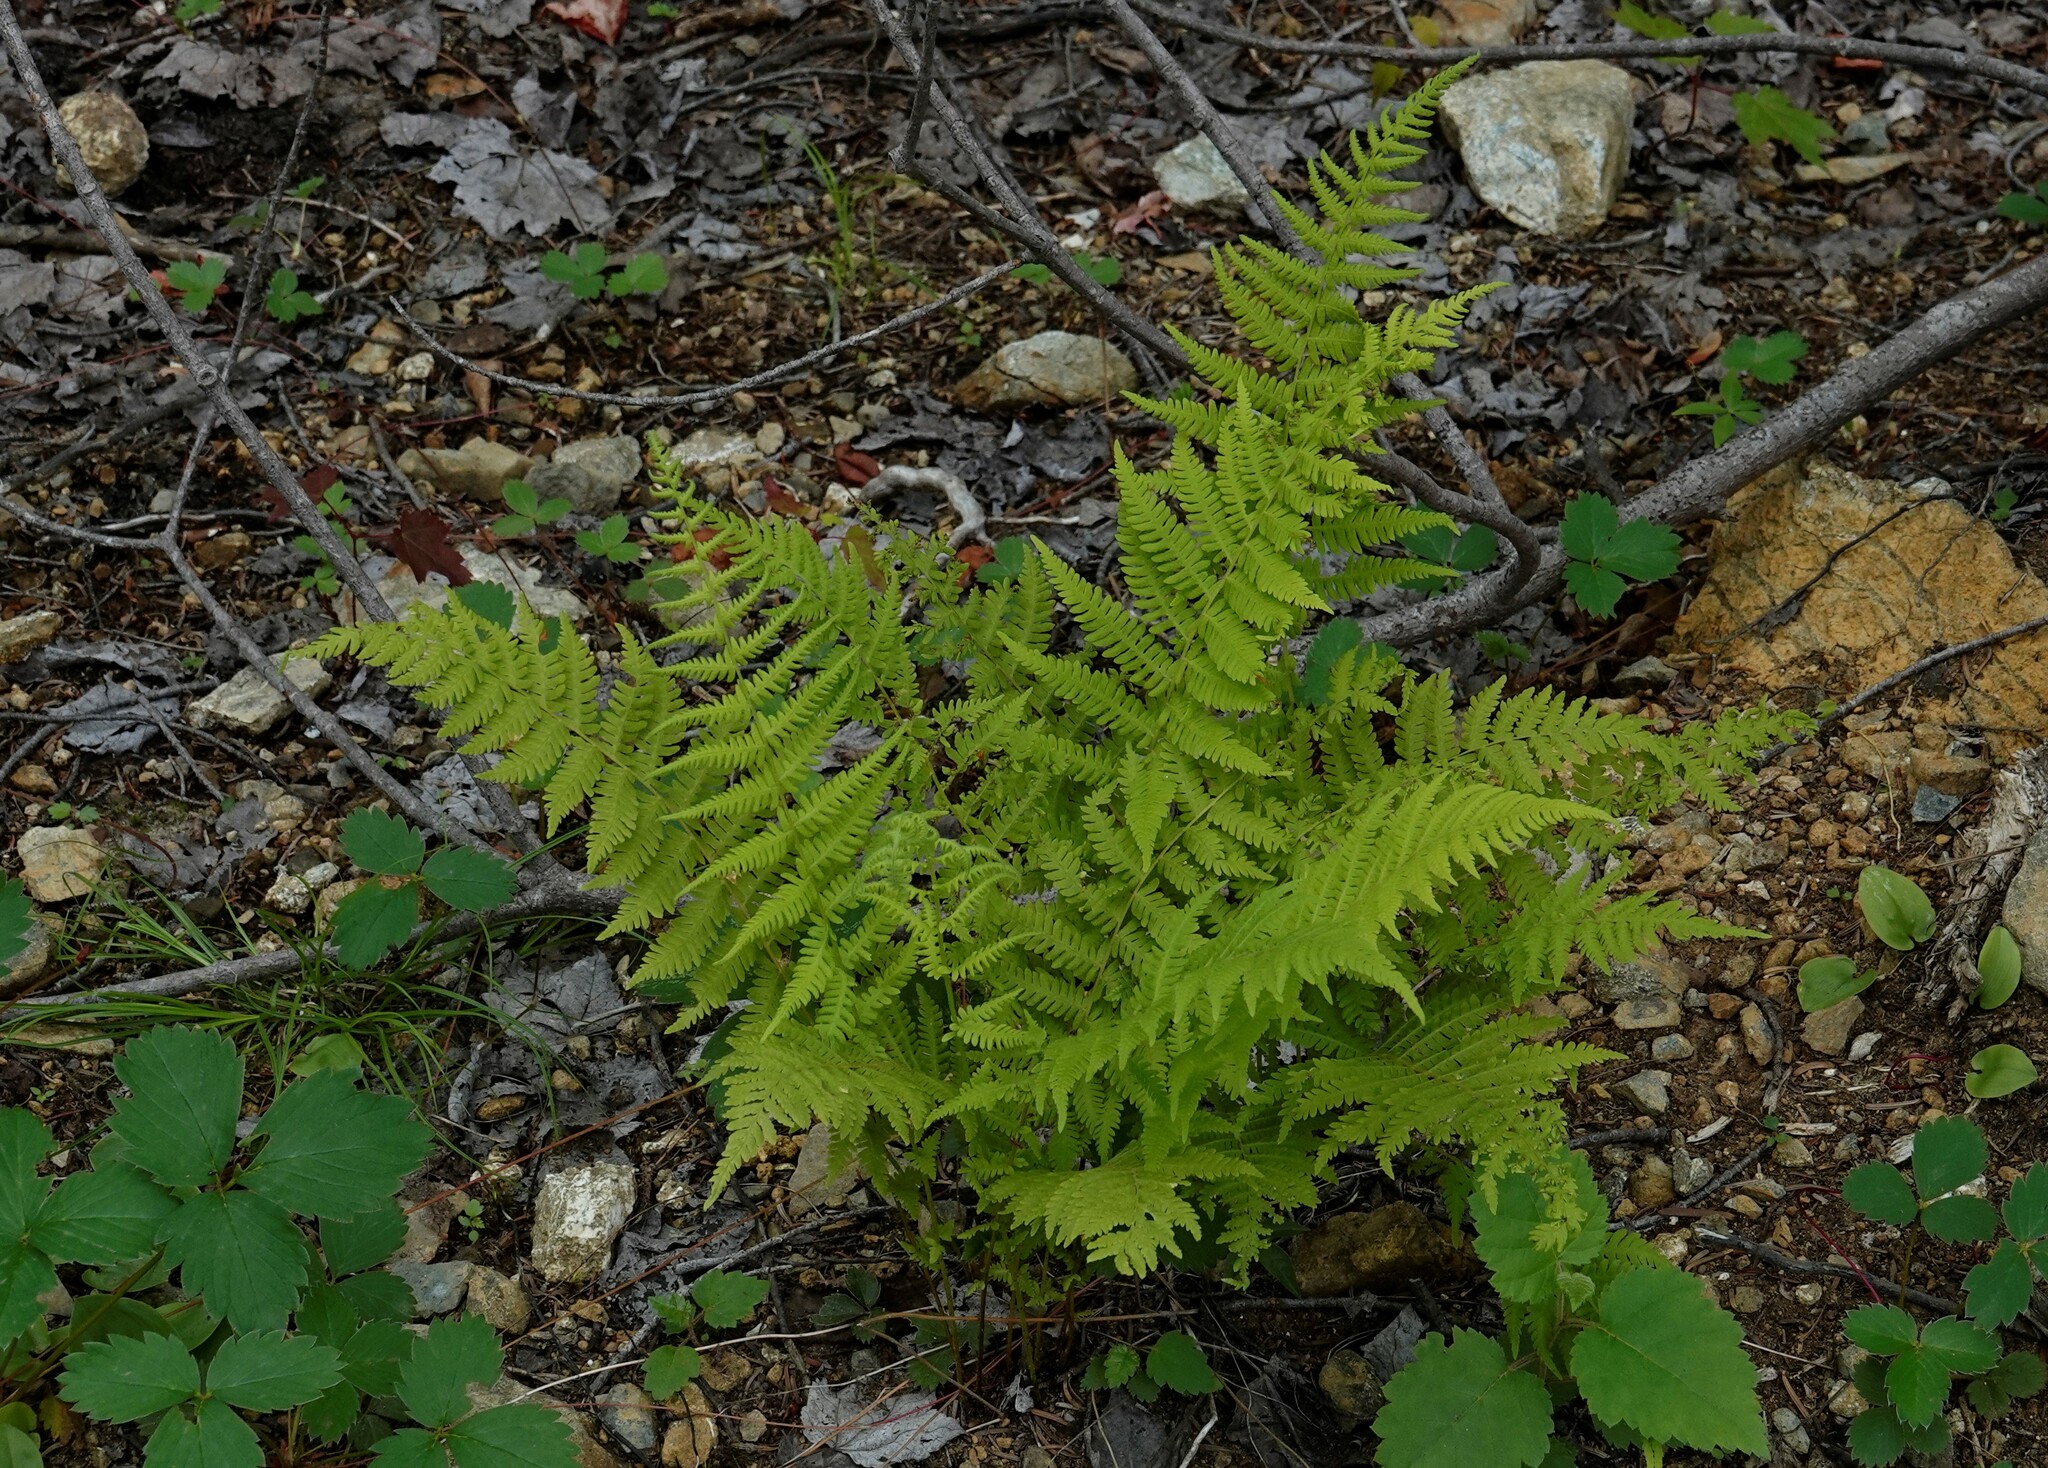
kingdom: Plantae
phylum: Tracheophyta
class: Polypodiopsida
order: Polypodiales
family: Thelypteridaceae
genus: Amauropelta
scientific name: Amauropelta noveboracensis
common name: New york fern
